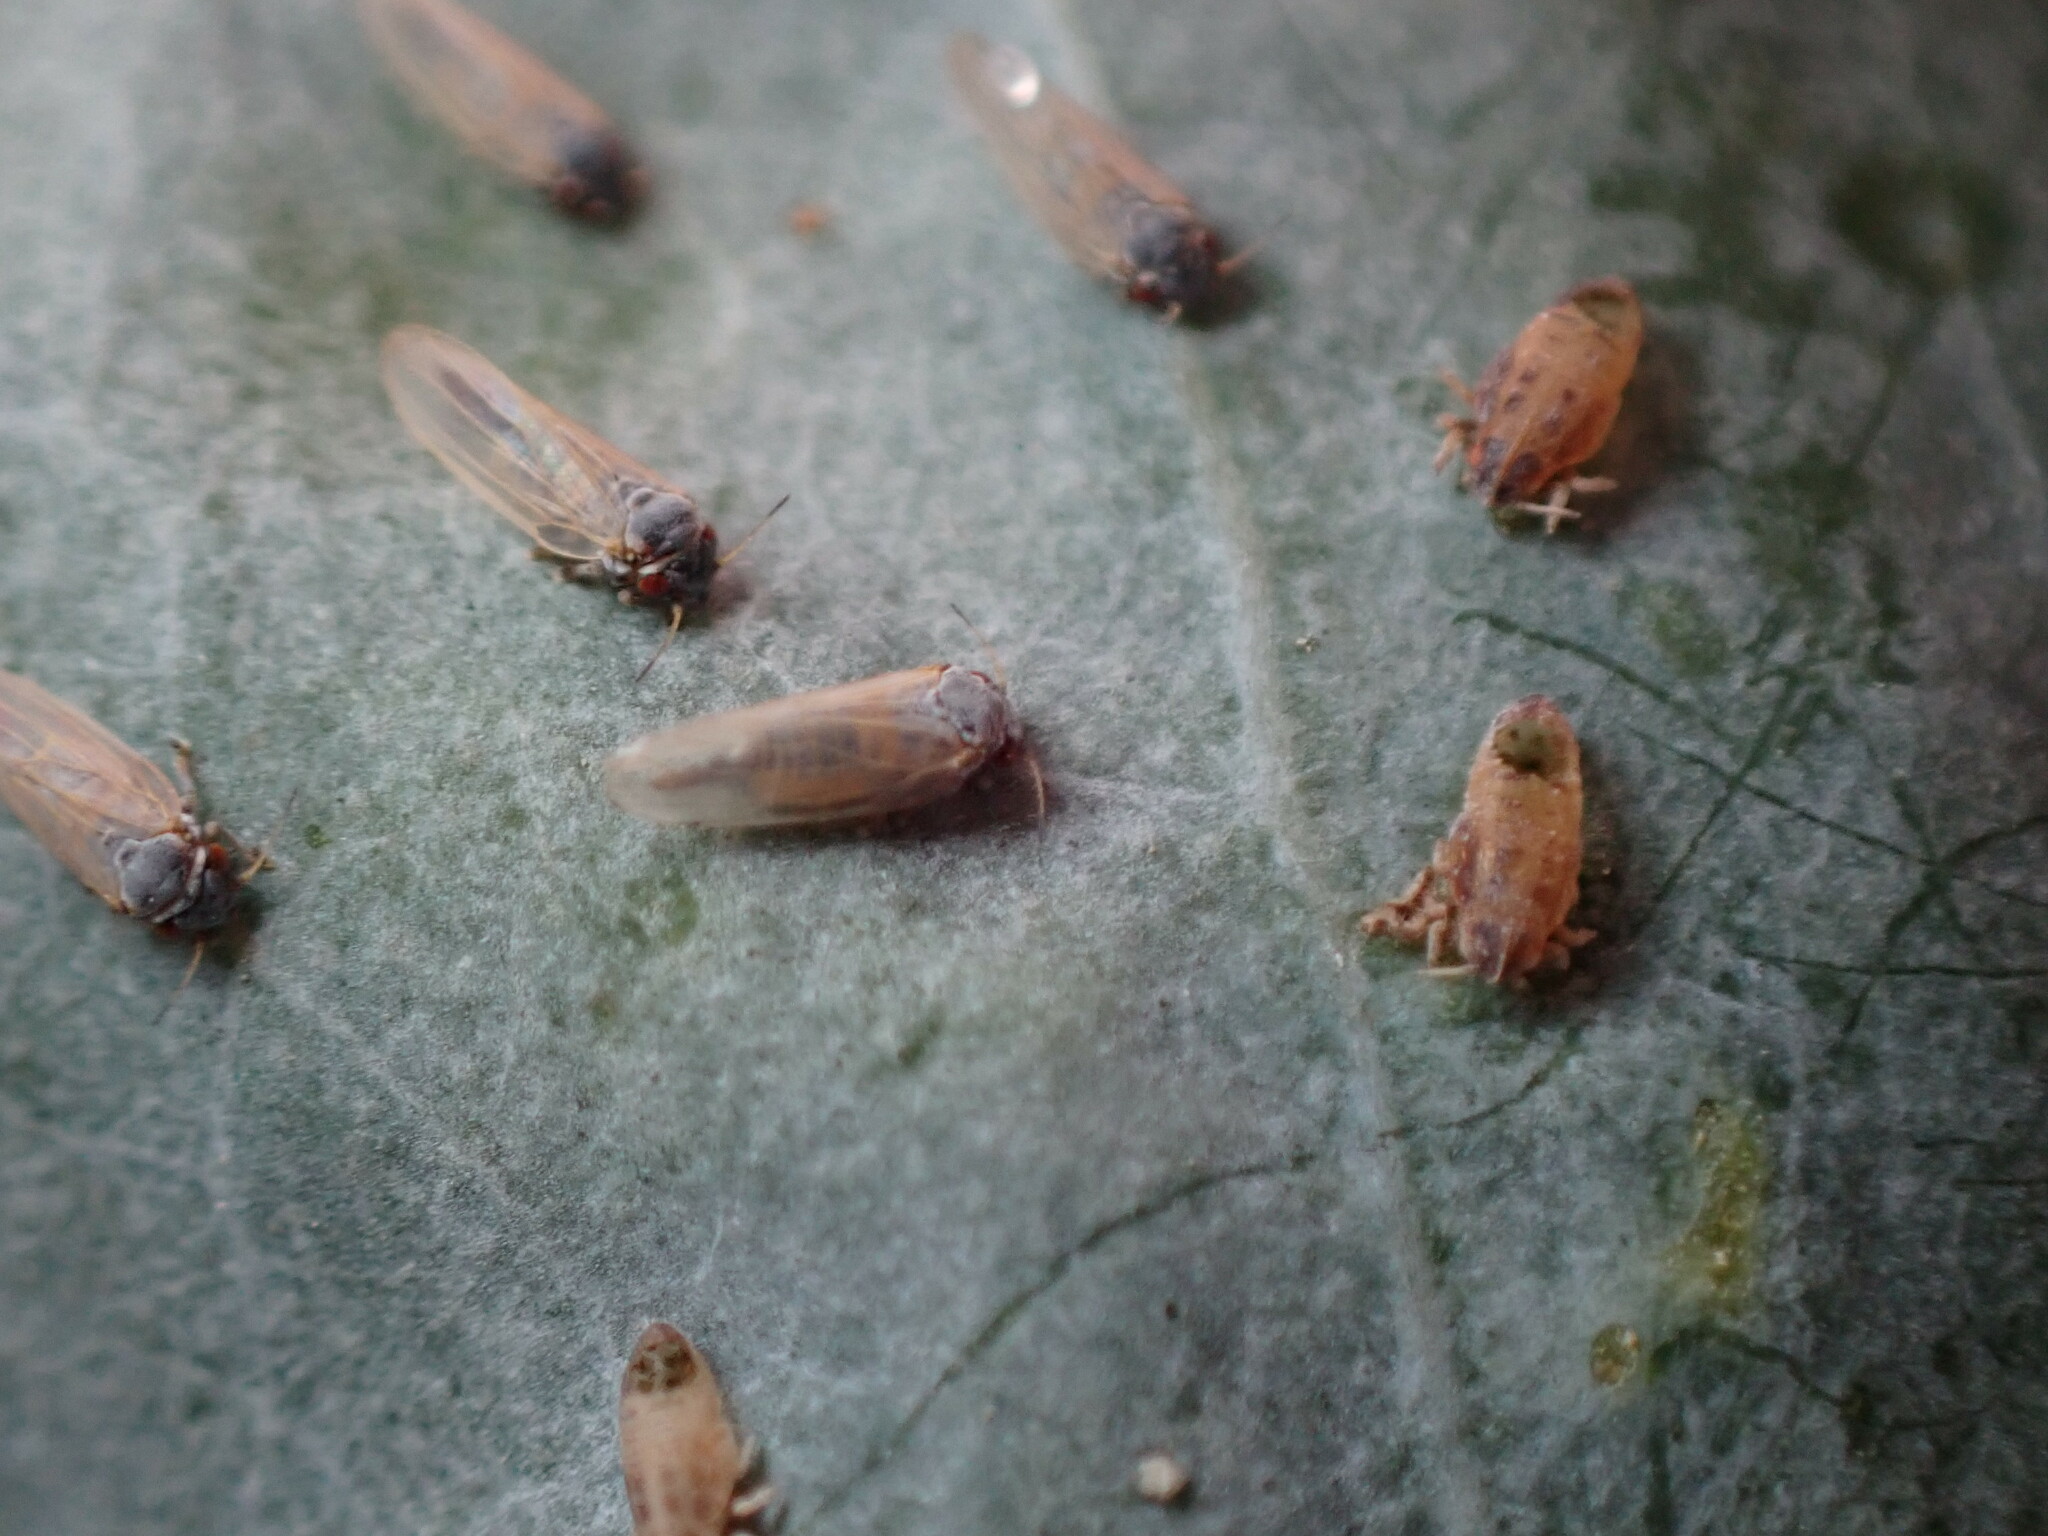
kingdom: Animalia
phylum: Arthropoda
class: Insecta
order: Hemiptera
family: Aphalaridae
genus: Ctenarytaina
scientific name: Ctenarytaina eucalypti
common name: Blue gum psyllid
